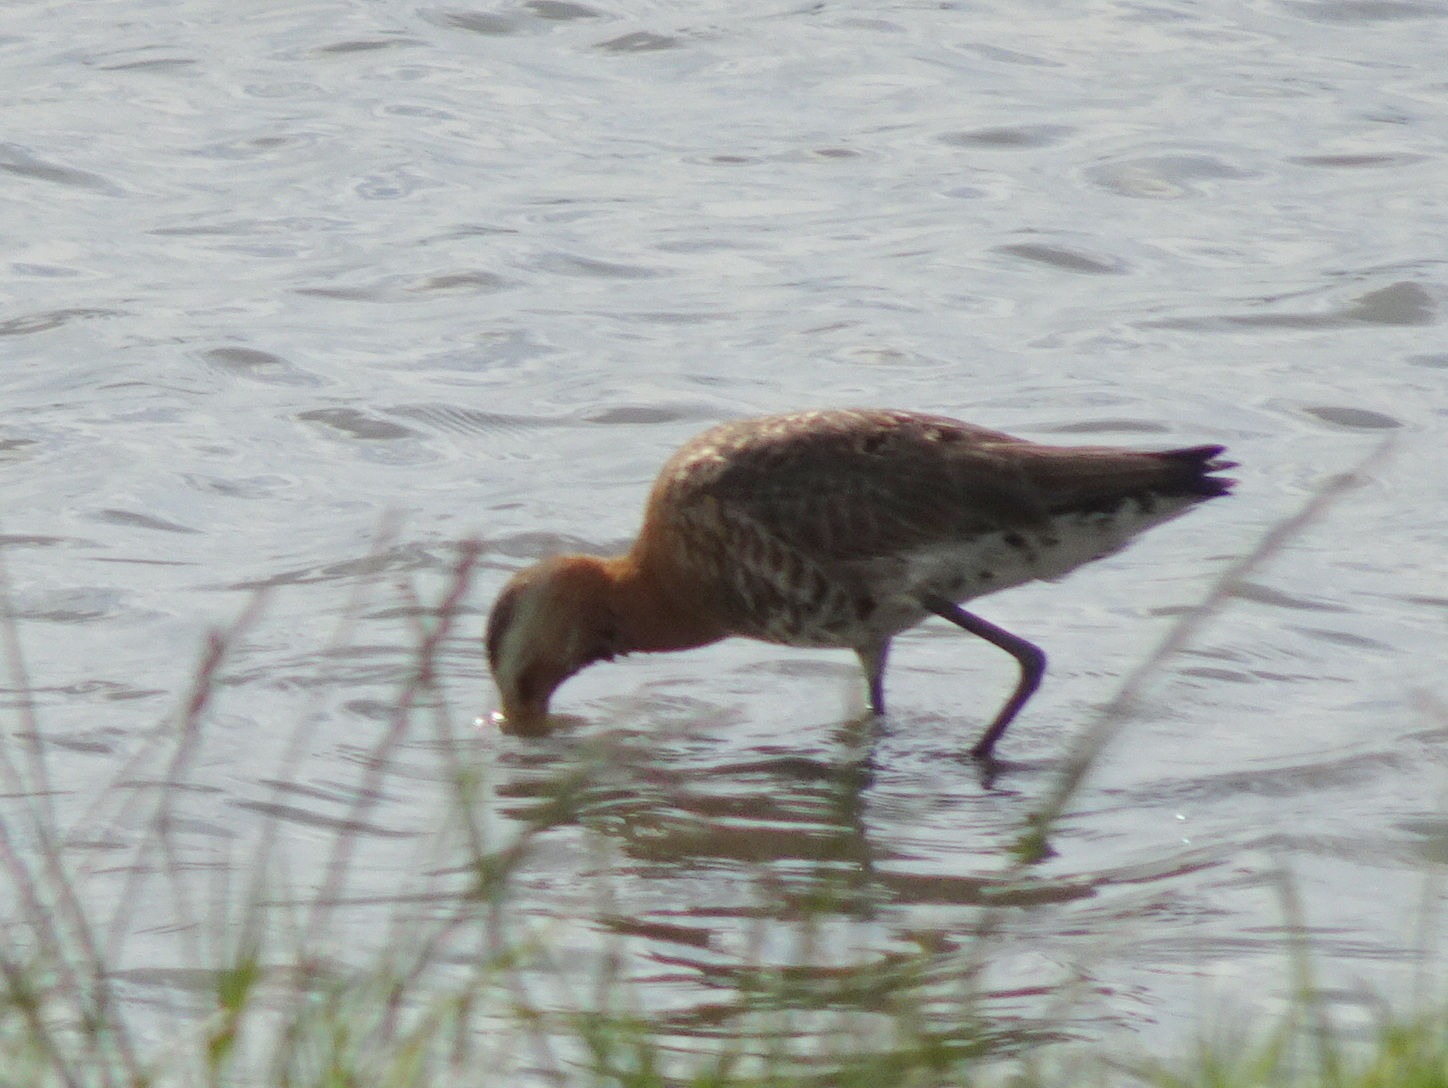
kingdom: Animalia
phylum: Chordata
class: Aves
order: Charadriiformes
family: Scolopacidae
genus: Limosa
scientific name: Limosa limosa
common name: Black-tailed godwit
